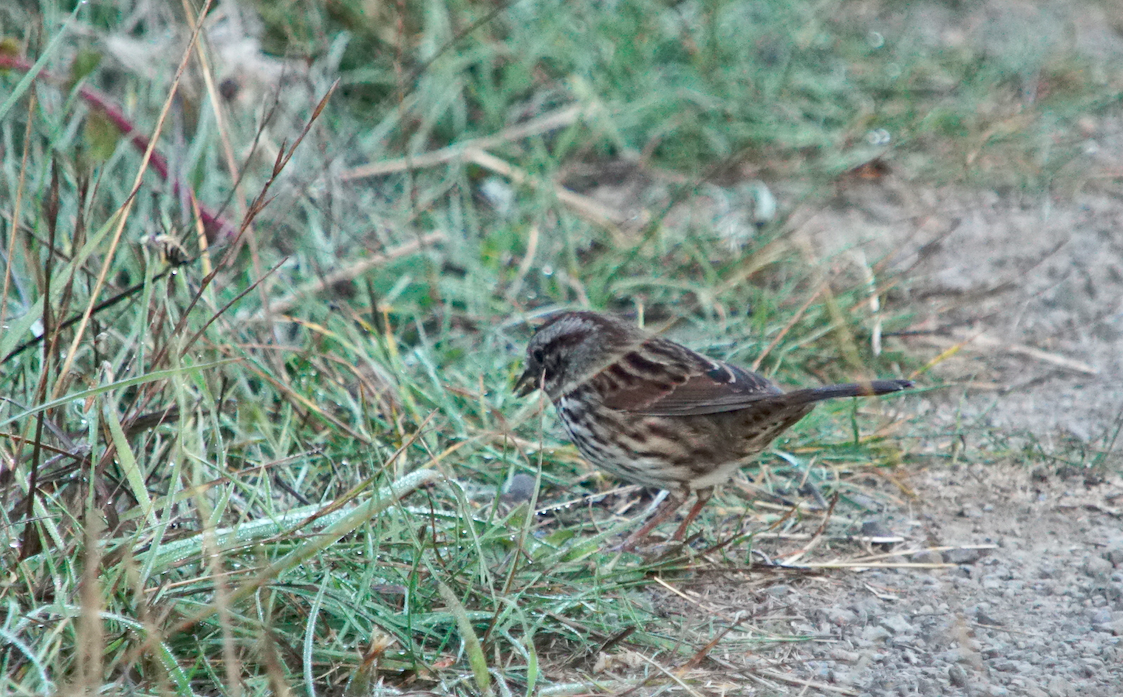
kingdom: Animalia
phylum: Chordata
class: Aves
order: Passeriformes
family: Passerellidae
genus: Melospiza
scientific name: Melospiza melodia
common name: Song sparrow
